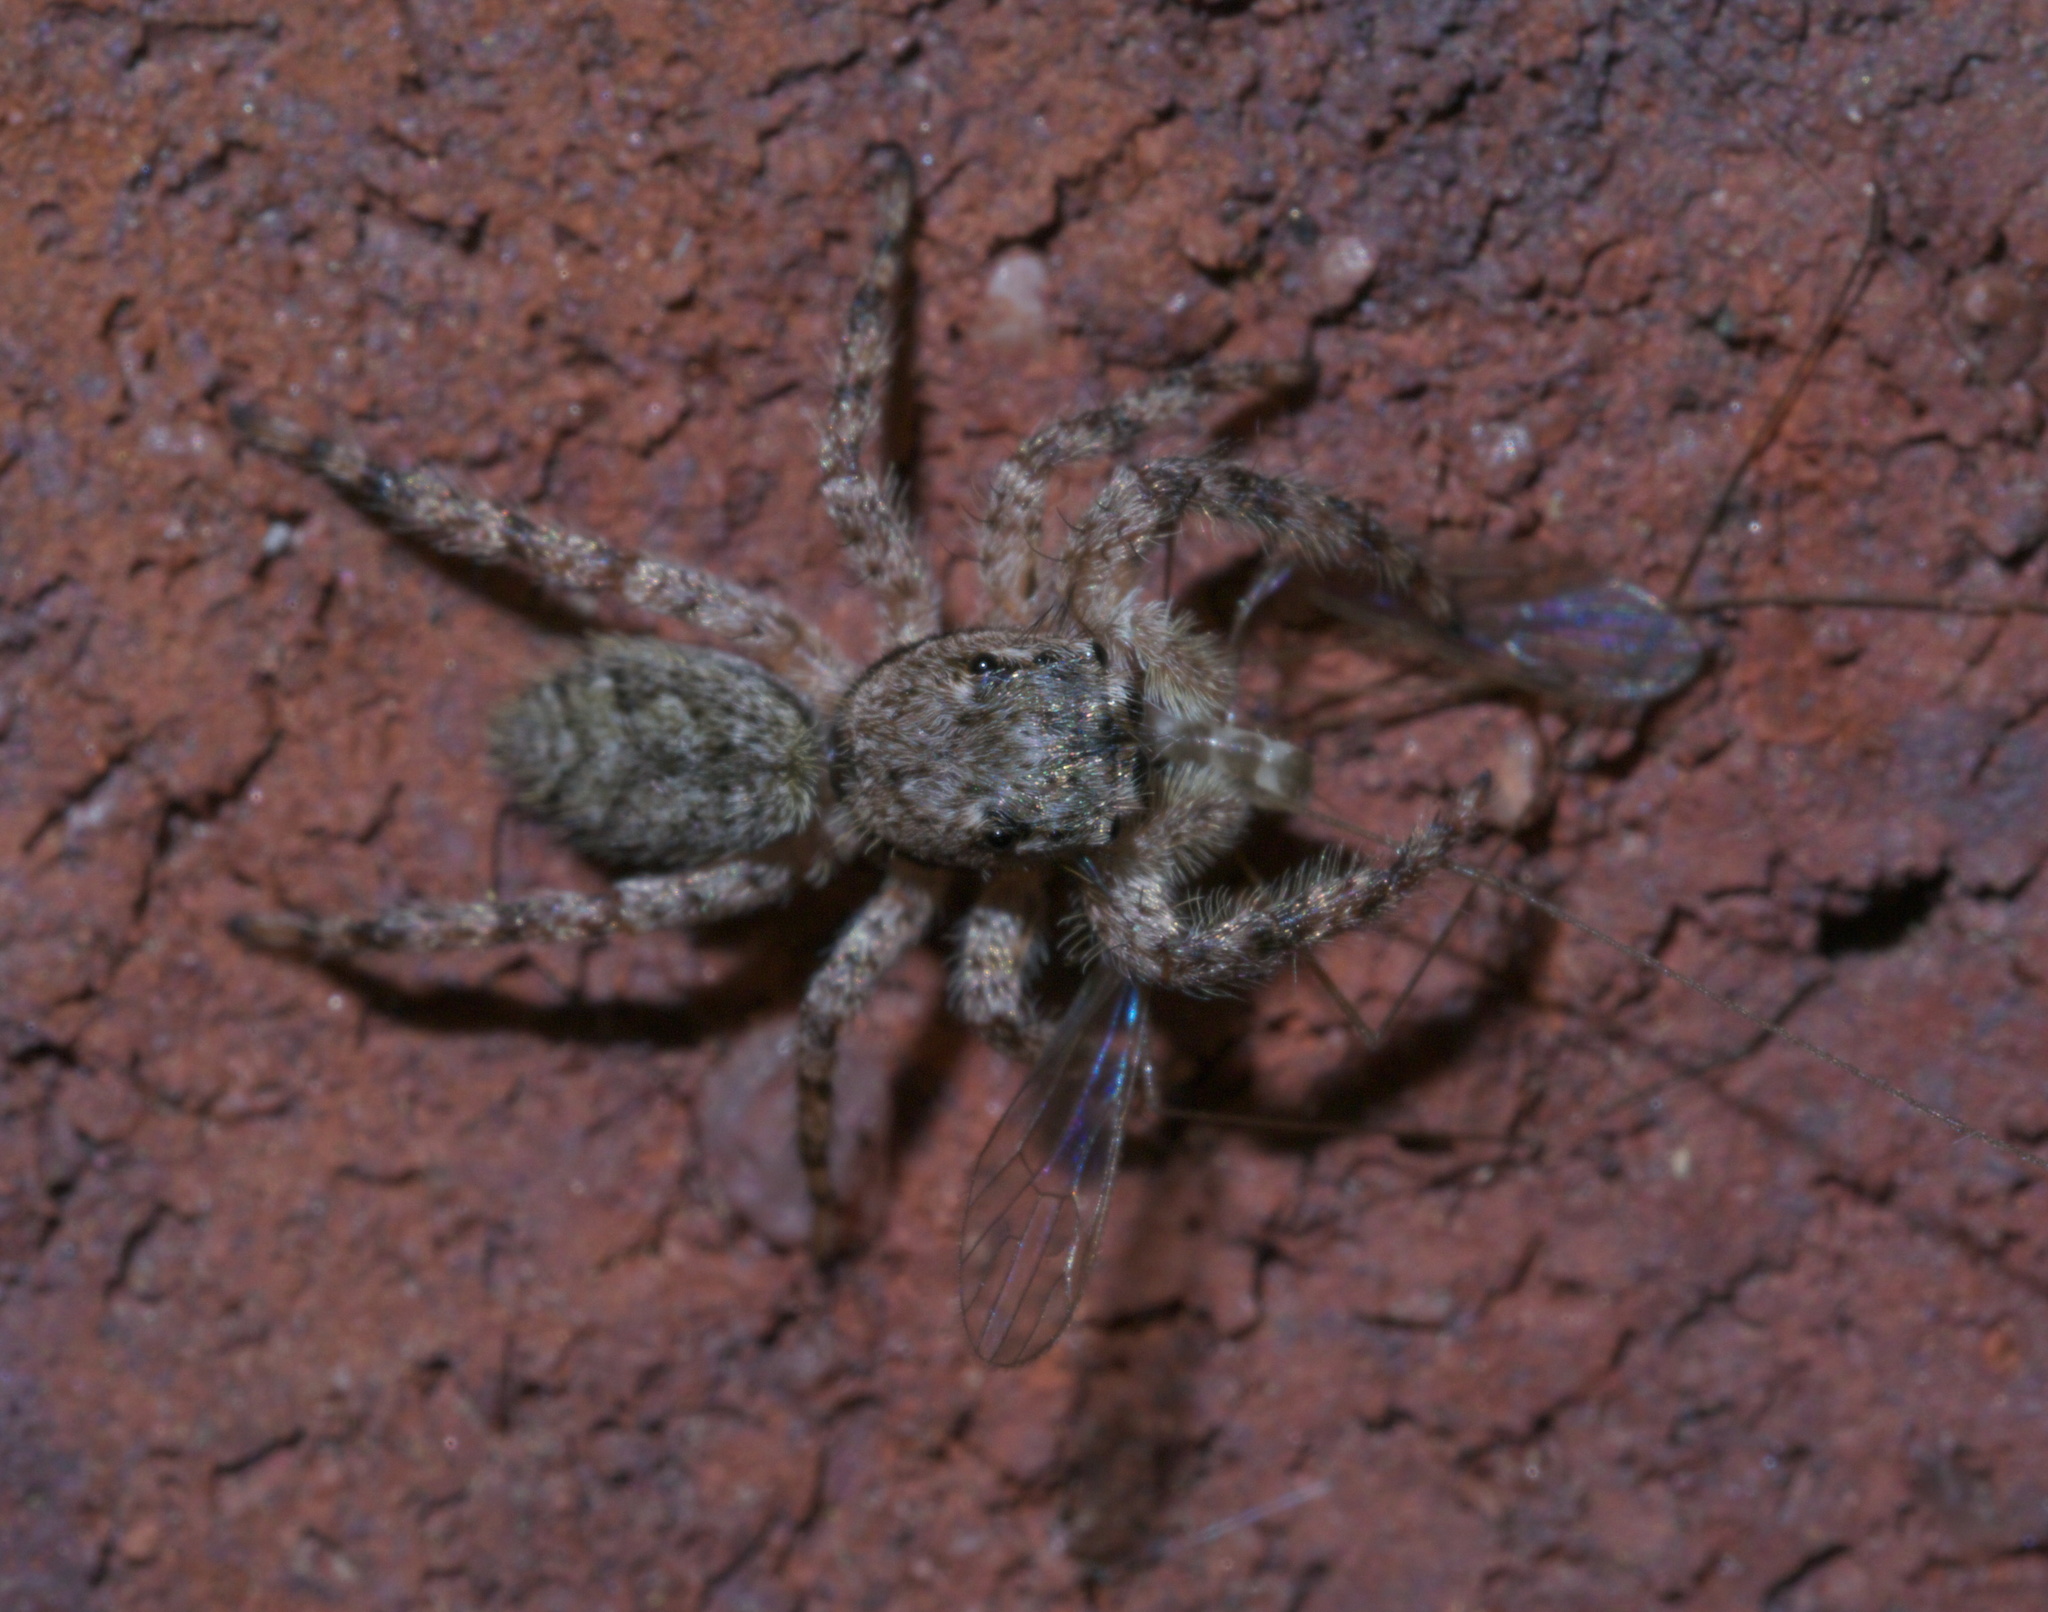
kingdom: Animalia
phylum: Arthropoda
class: Arachnida
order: Araneae
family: Salticidae
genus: Platycryptus
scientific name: Platycryptus undatus
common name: Tan jumping spider
